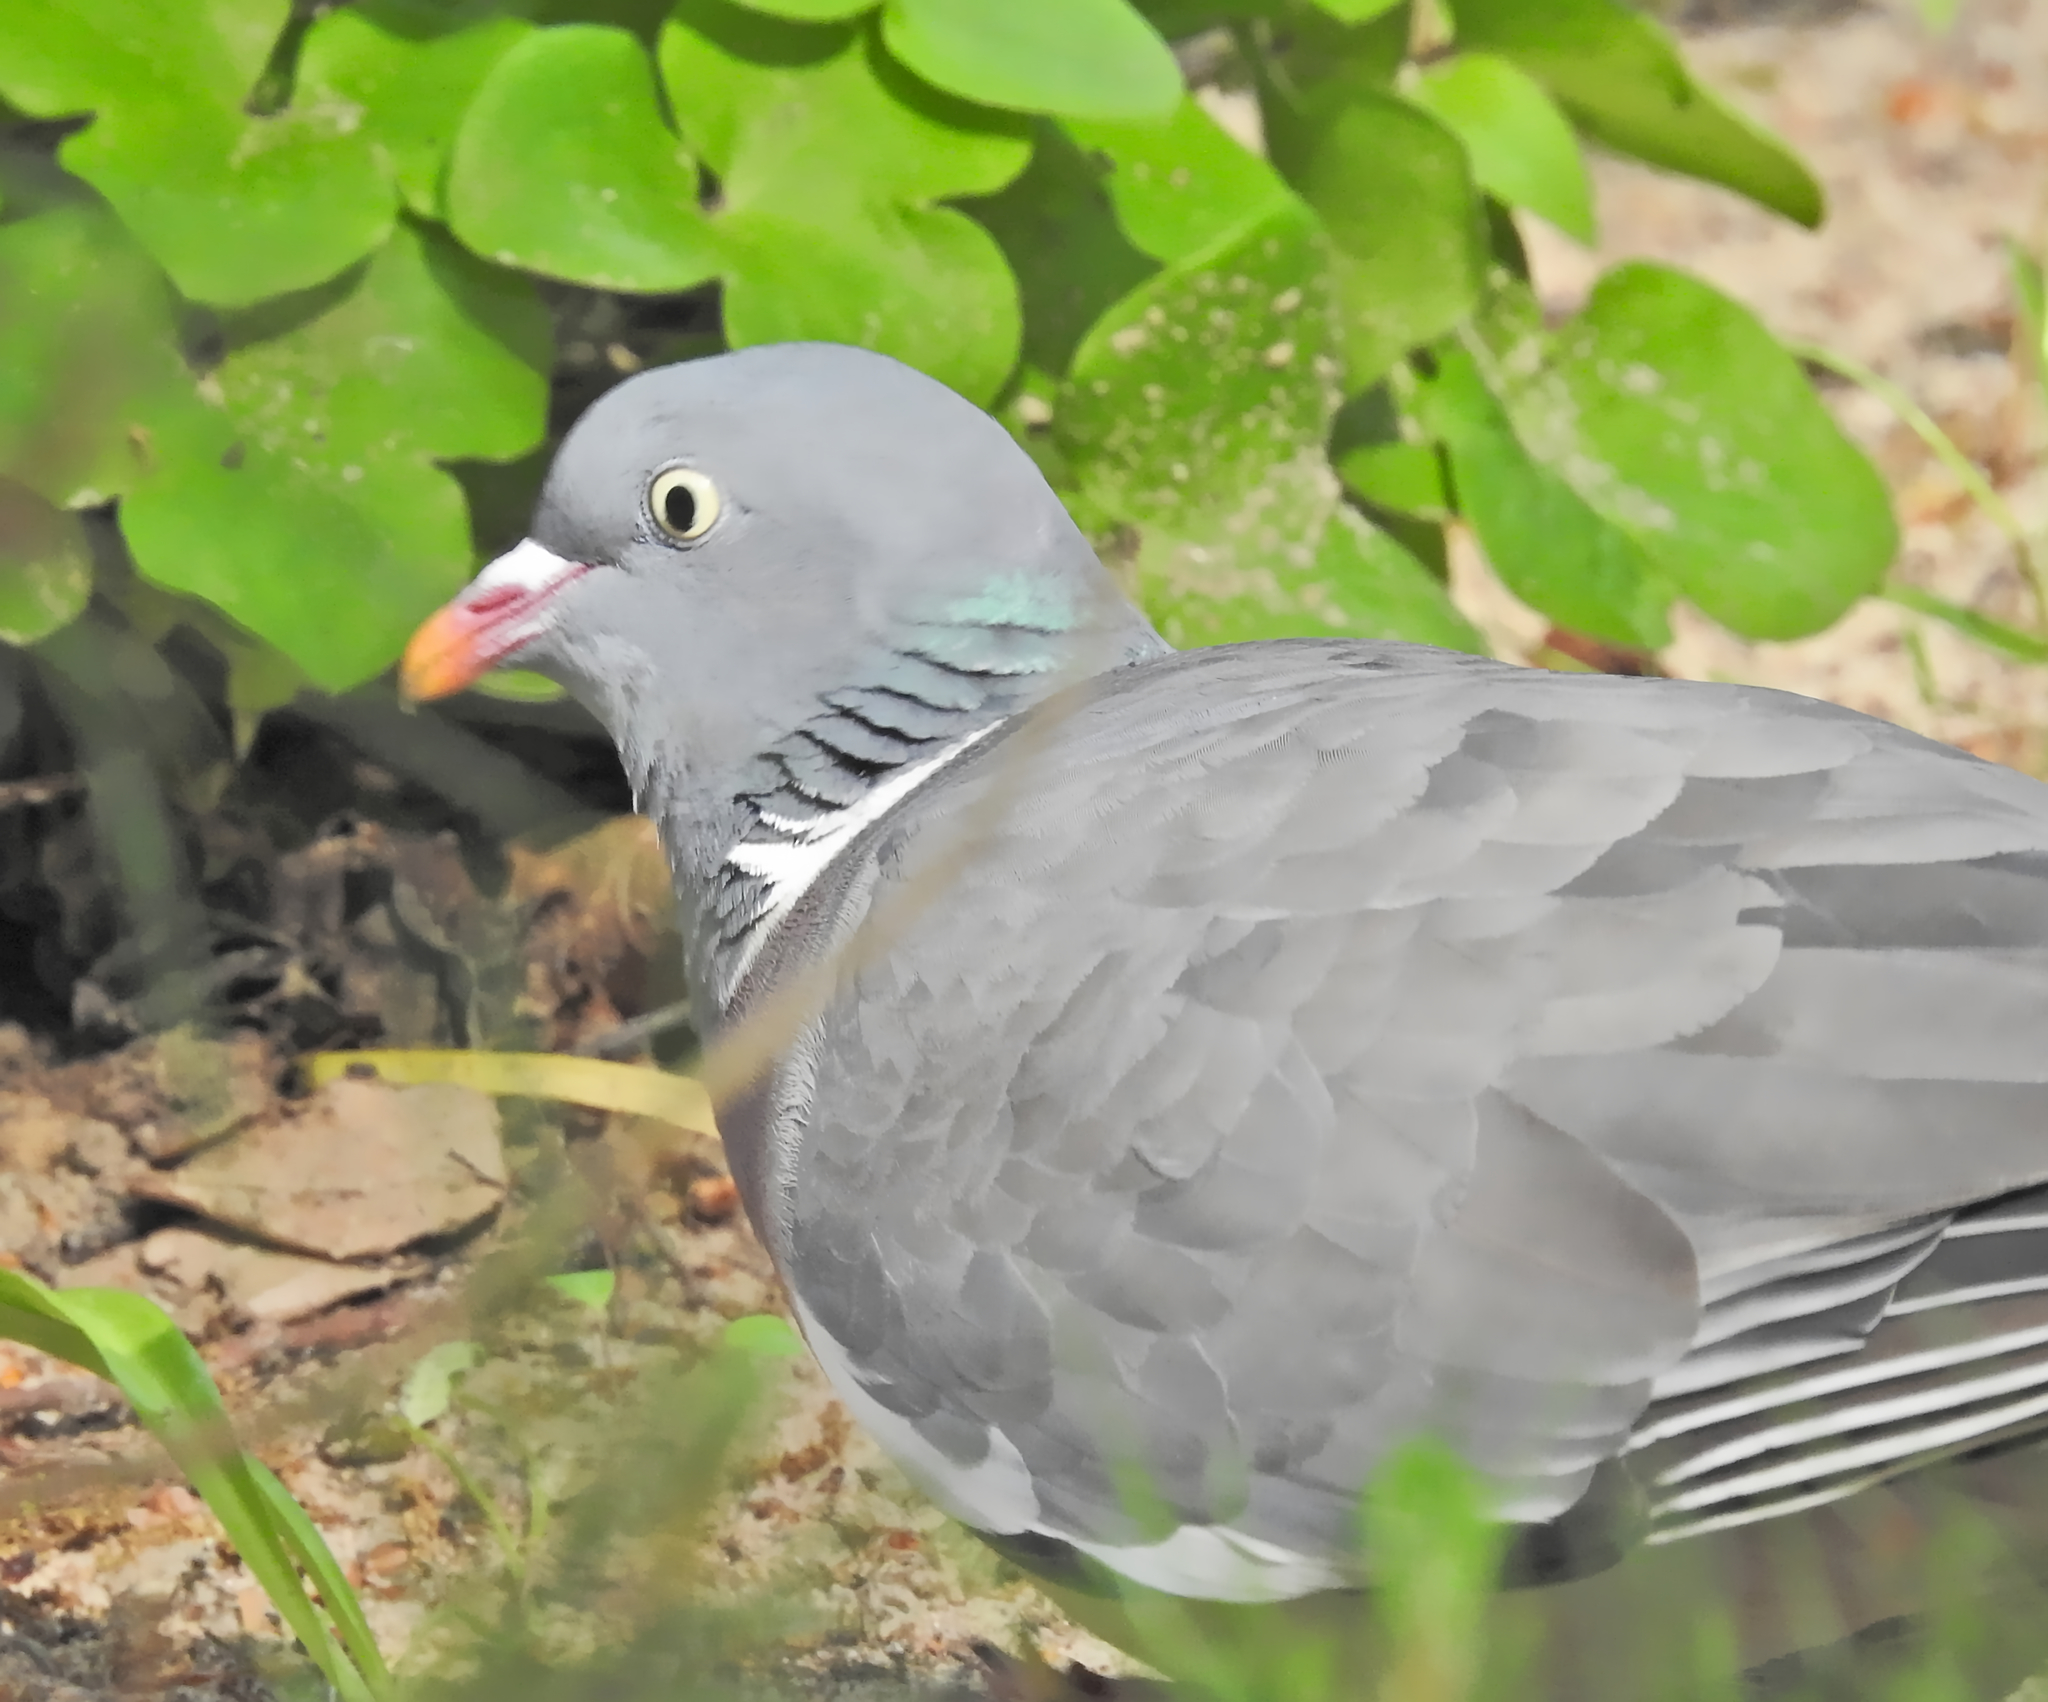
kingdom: Animalia
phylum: Chordata
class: Aves
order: Columbiformes
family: Columbidae
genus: Columba
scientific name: Columba palumbus
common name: Common wood pigeon
